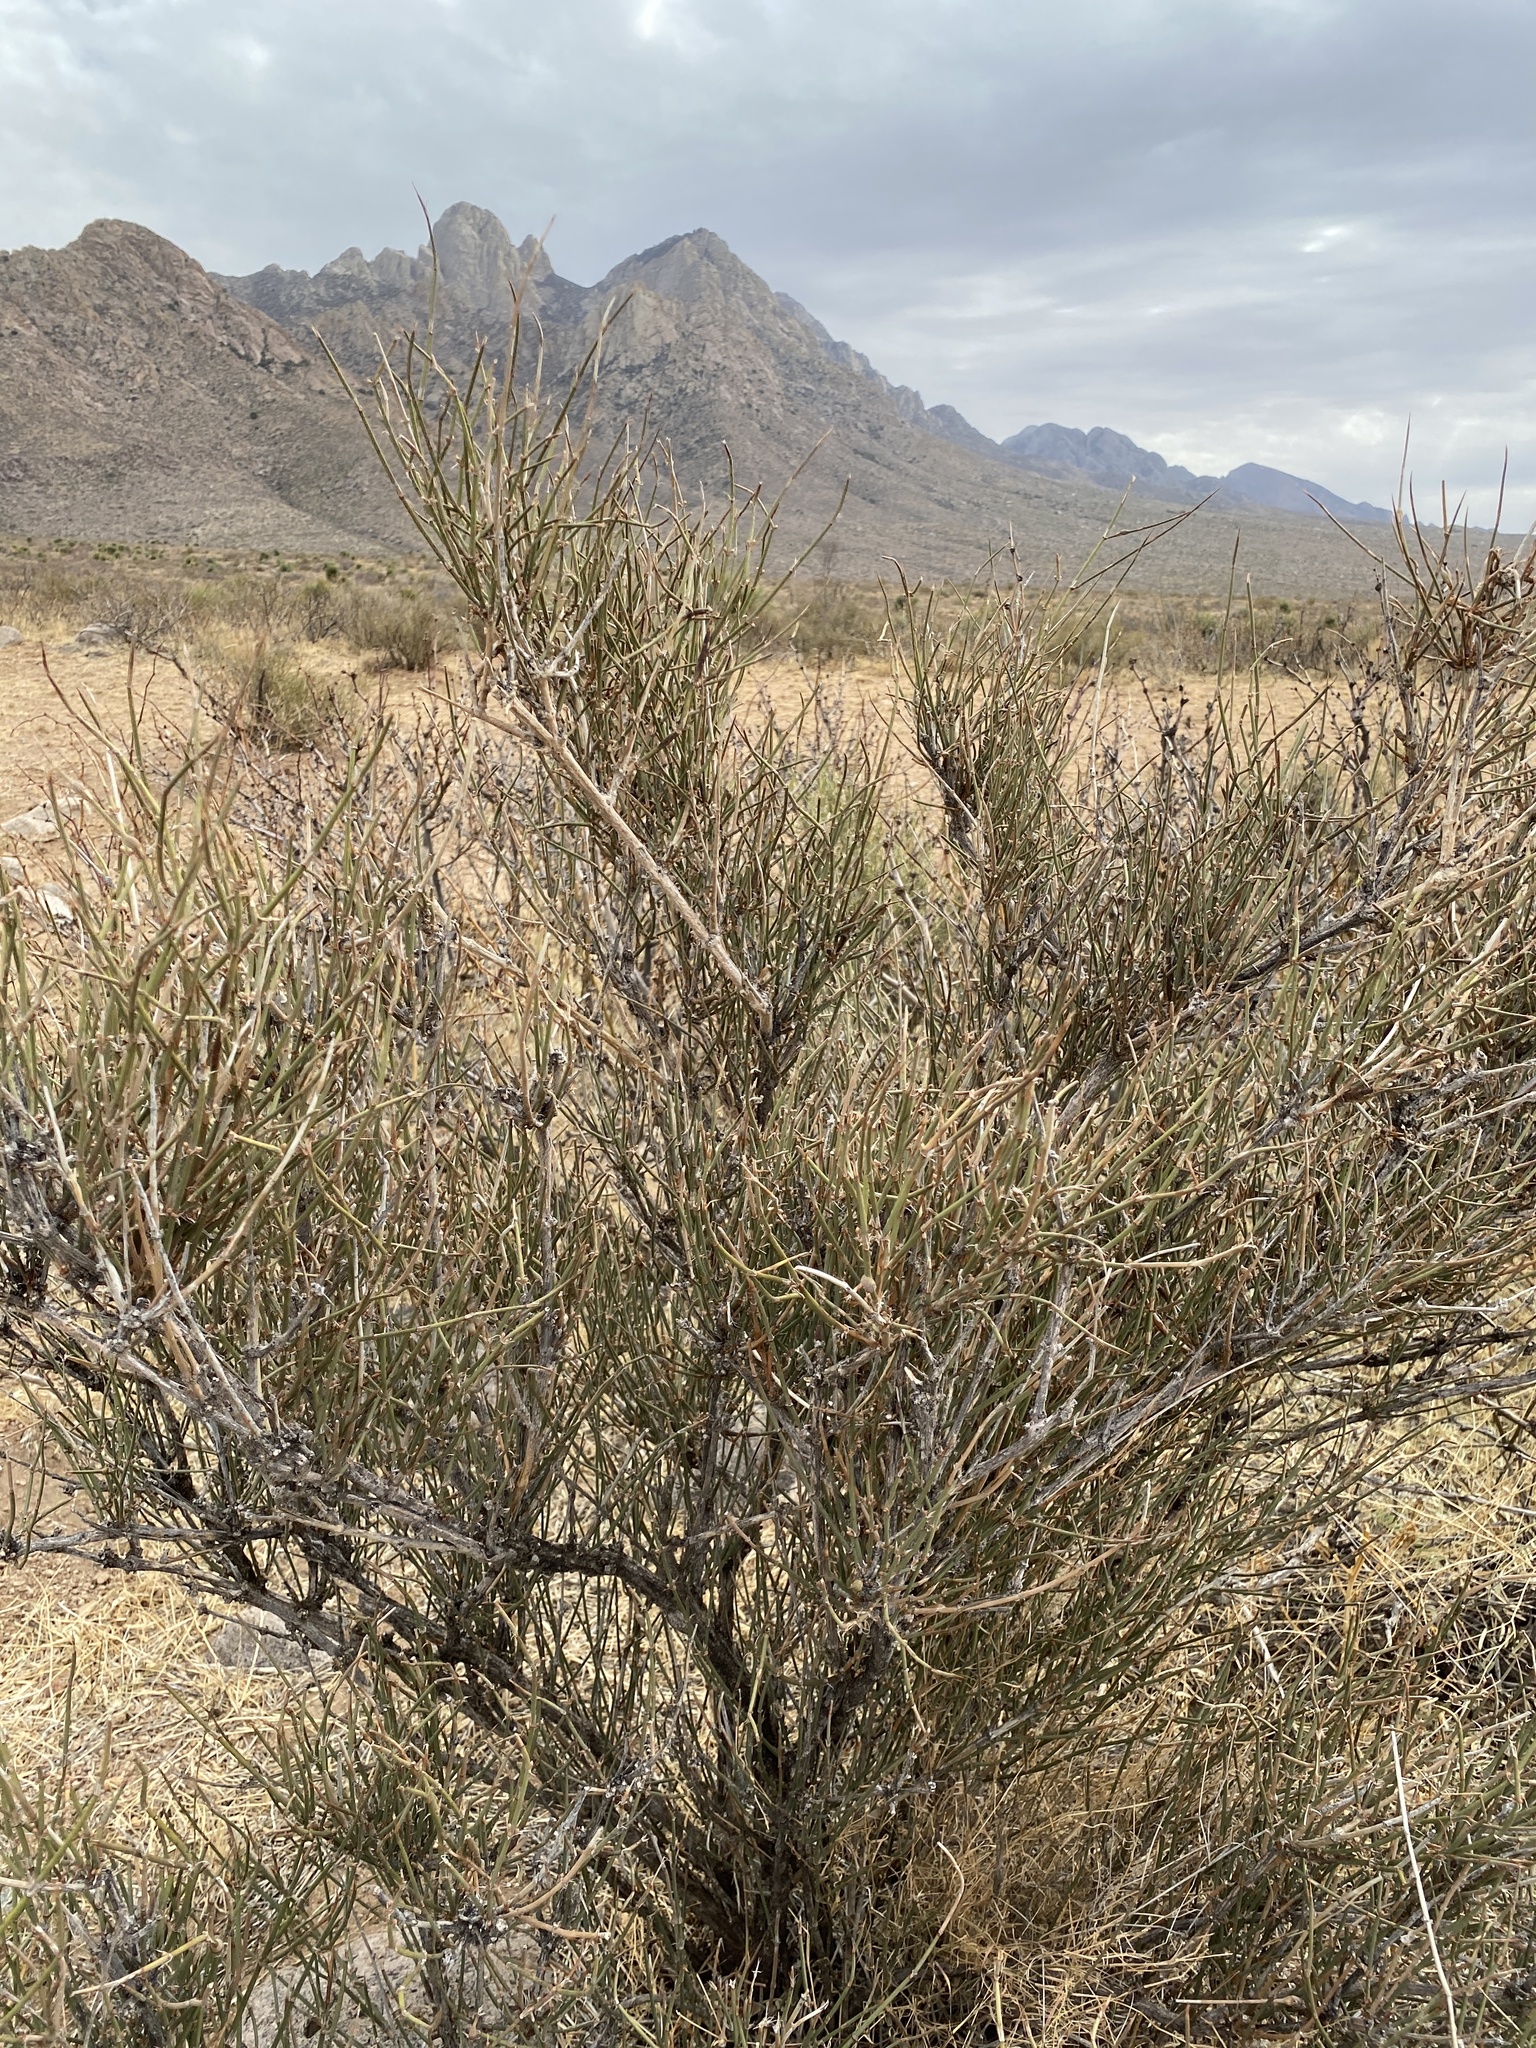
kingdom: Plantae
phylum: Tracheophyta
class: Gnetopsida
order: Ephedrales
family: Ephedraceae
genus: Ephedra
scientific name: Ephedra trifurca
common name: Mexican-tea
